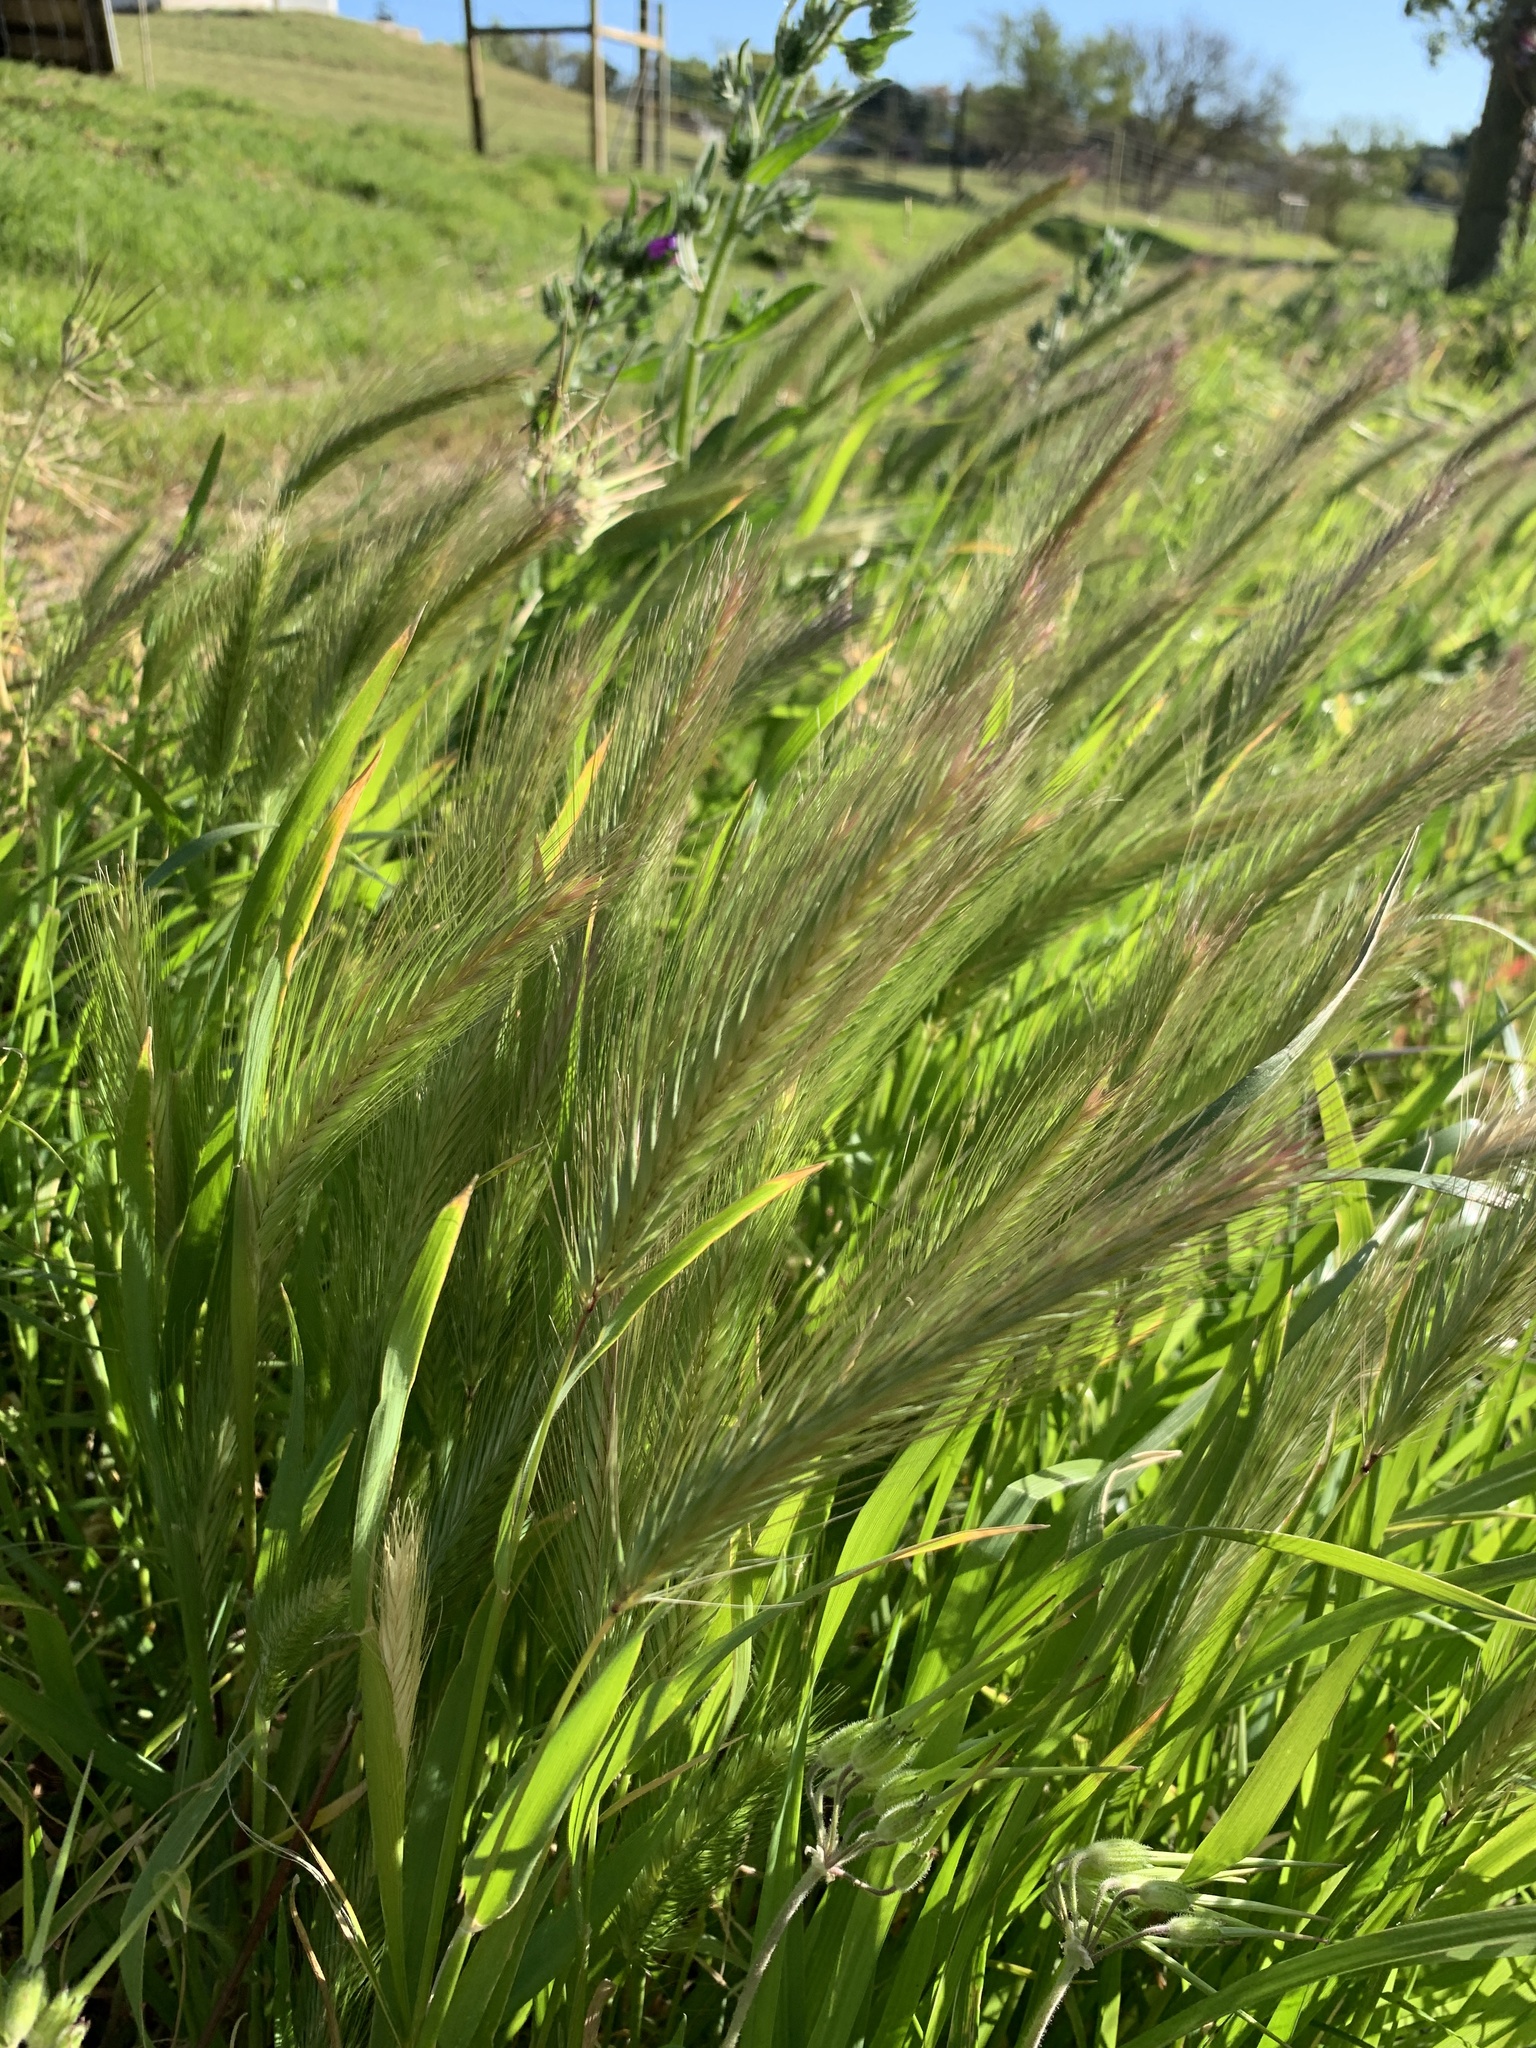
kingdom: Plantae
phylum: Tracheophyta
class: Liliopsida
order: Poales
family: Poaceae
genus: Hordeum
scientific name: Hordeum murinum
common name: Wall barley
